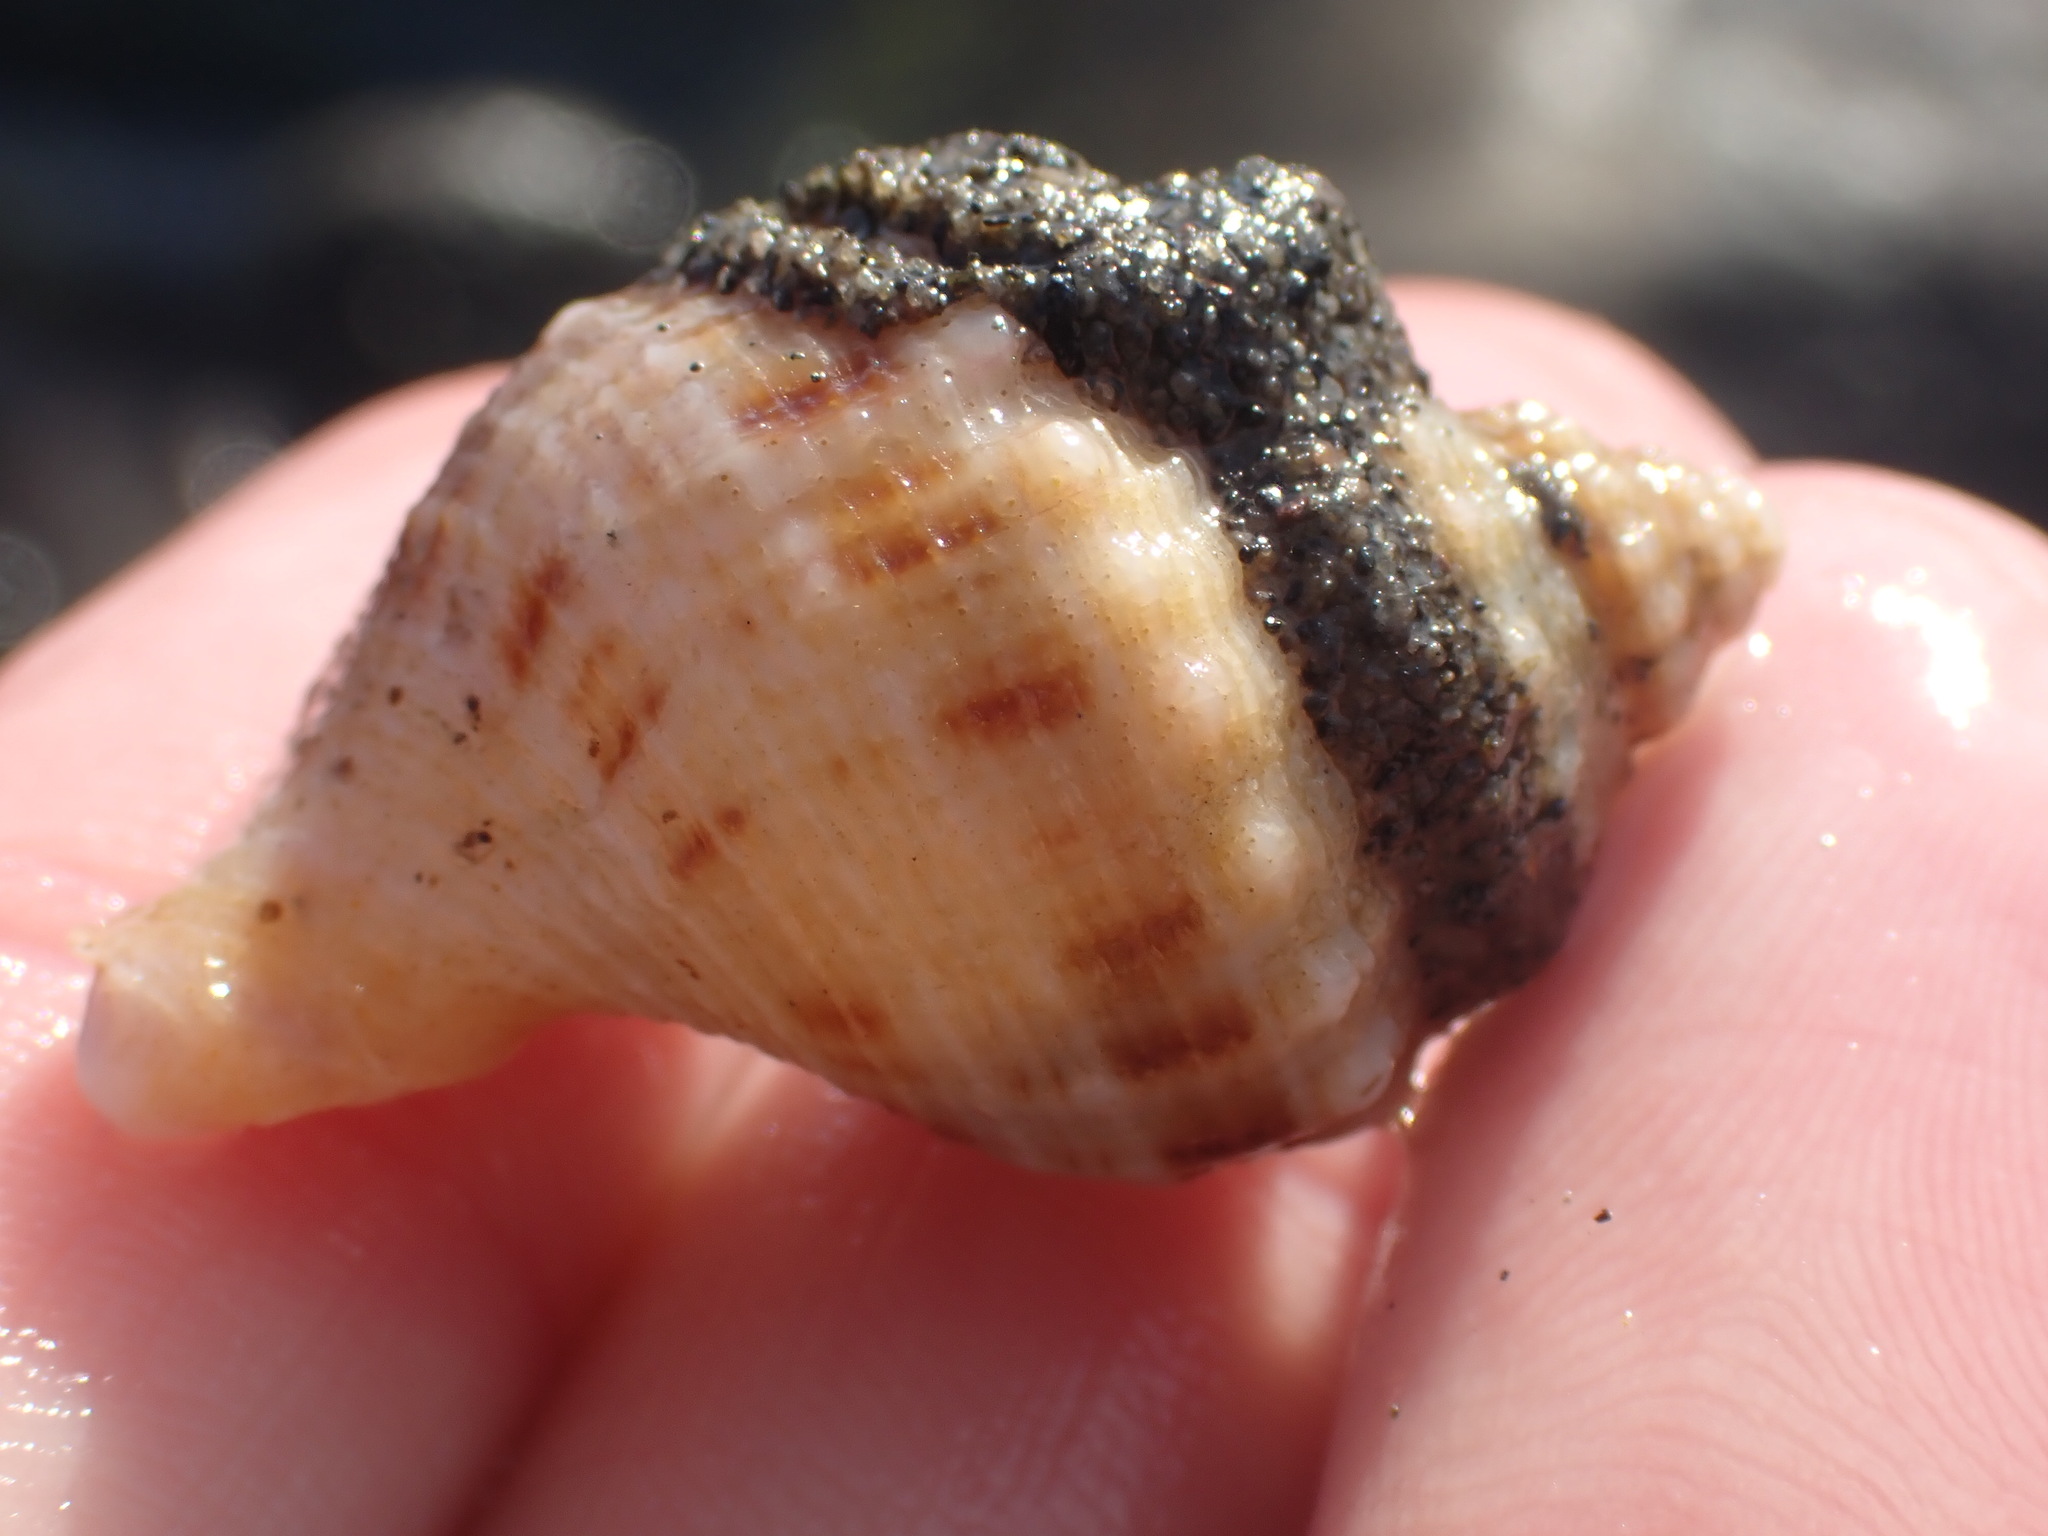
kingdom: Animalia
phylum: Mollusca
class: Gastropoda
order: Neogastropoda
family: Prosiphonidae
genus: Austrofusus
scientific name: Austrofusus glans
